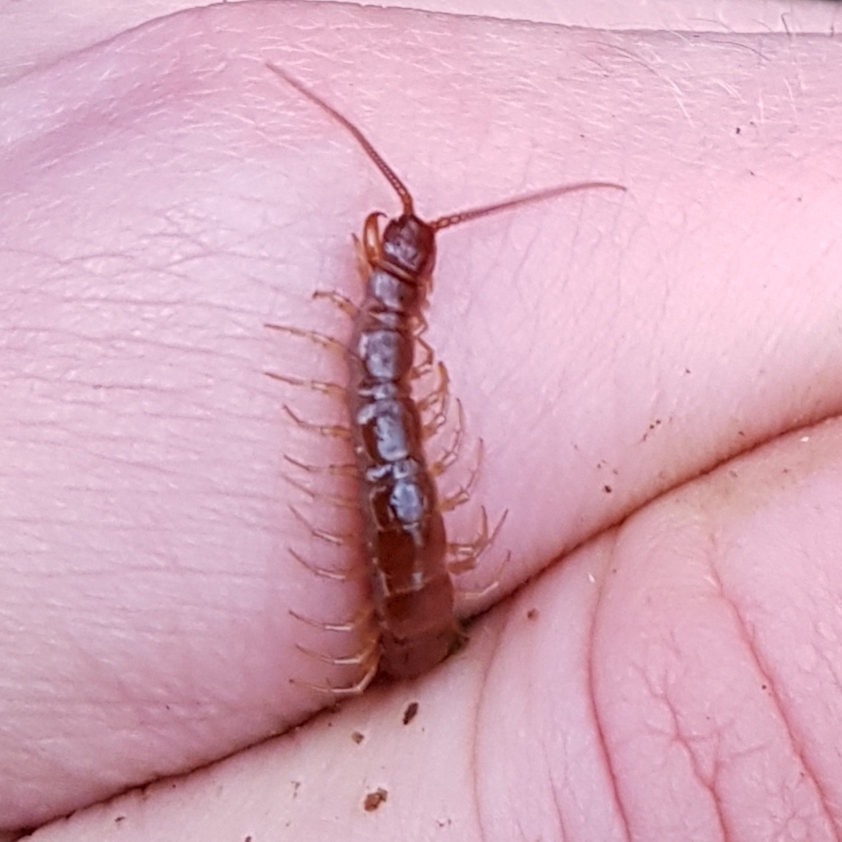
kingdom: Animalia
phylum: Arthropoda
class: Chilopoda
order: Lithobiomorpha
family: Lithobiidae
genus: Lithobius
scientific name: Lithobius forficatus
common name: Centipede
